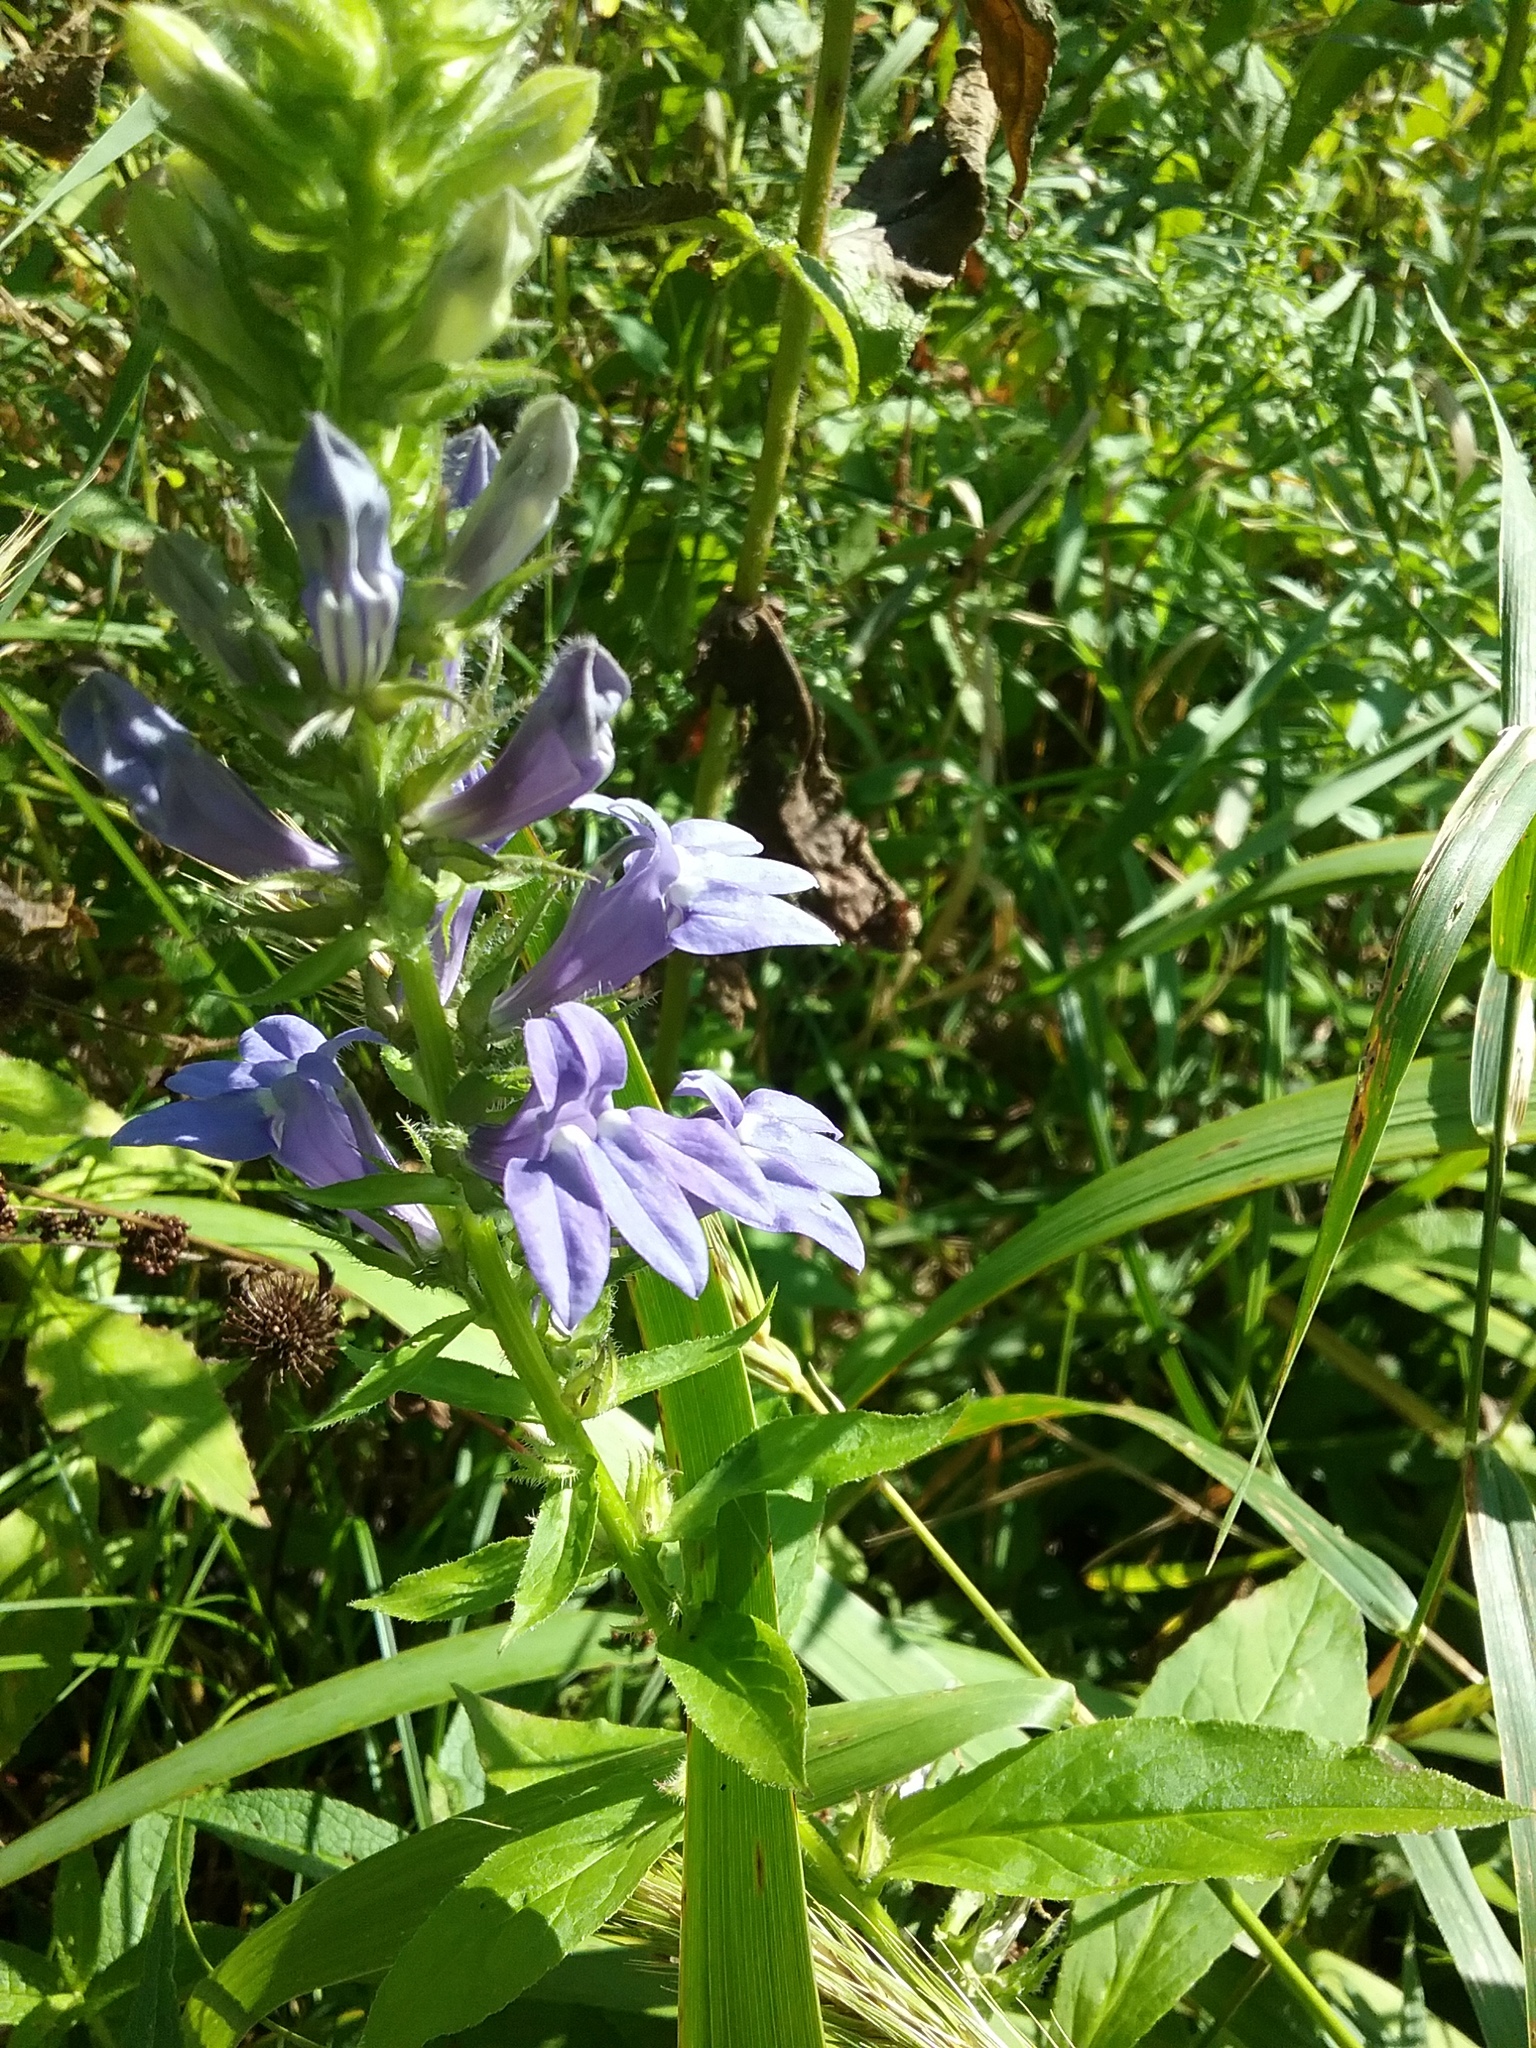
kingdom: Plantae
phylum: Tracheophyta
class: Magnoliopsida
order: Asterales
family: Campanulaceae
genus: Lobelia
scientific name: Lobelia siphilitica
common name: Great lobelia
